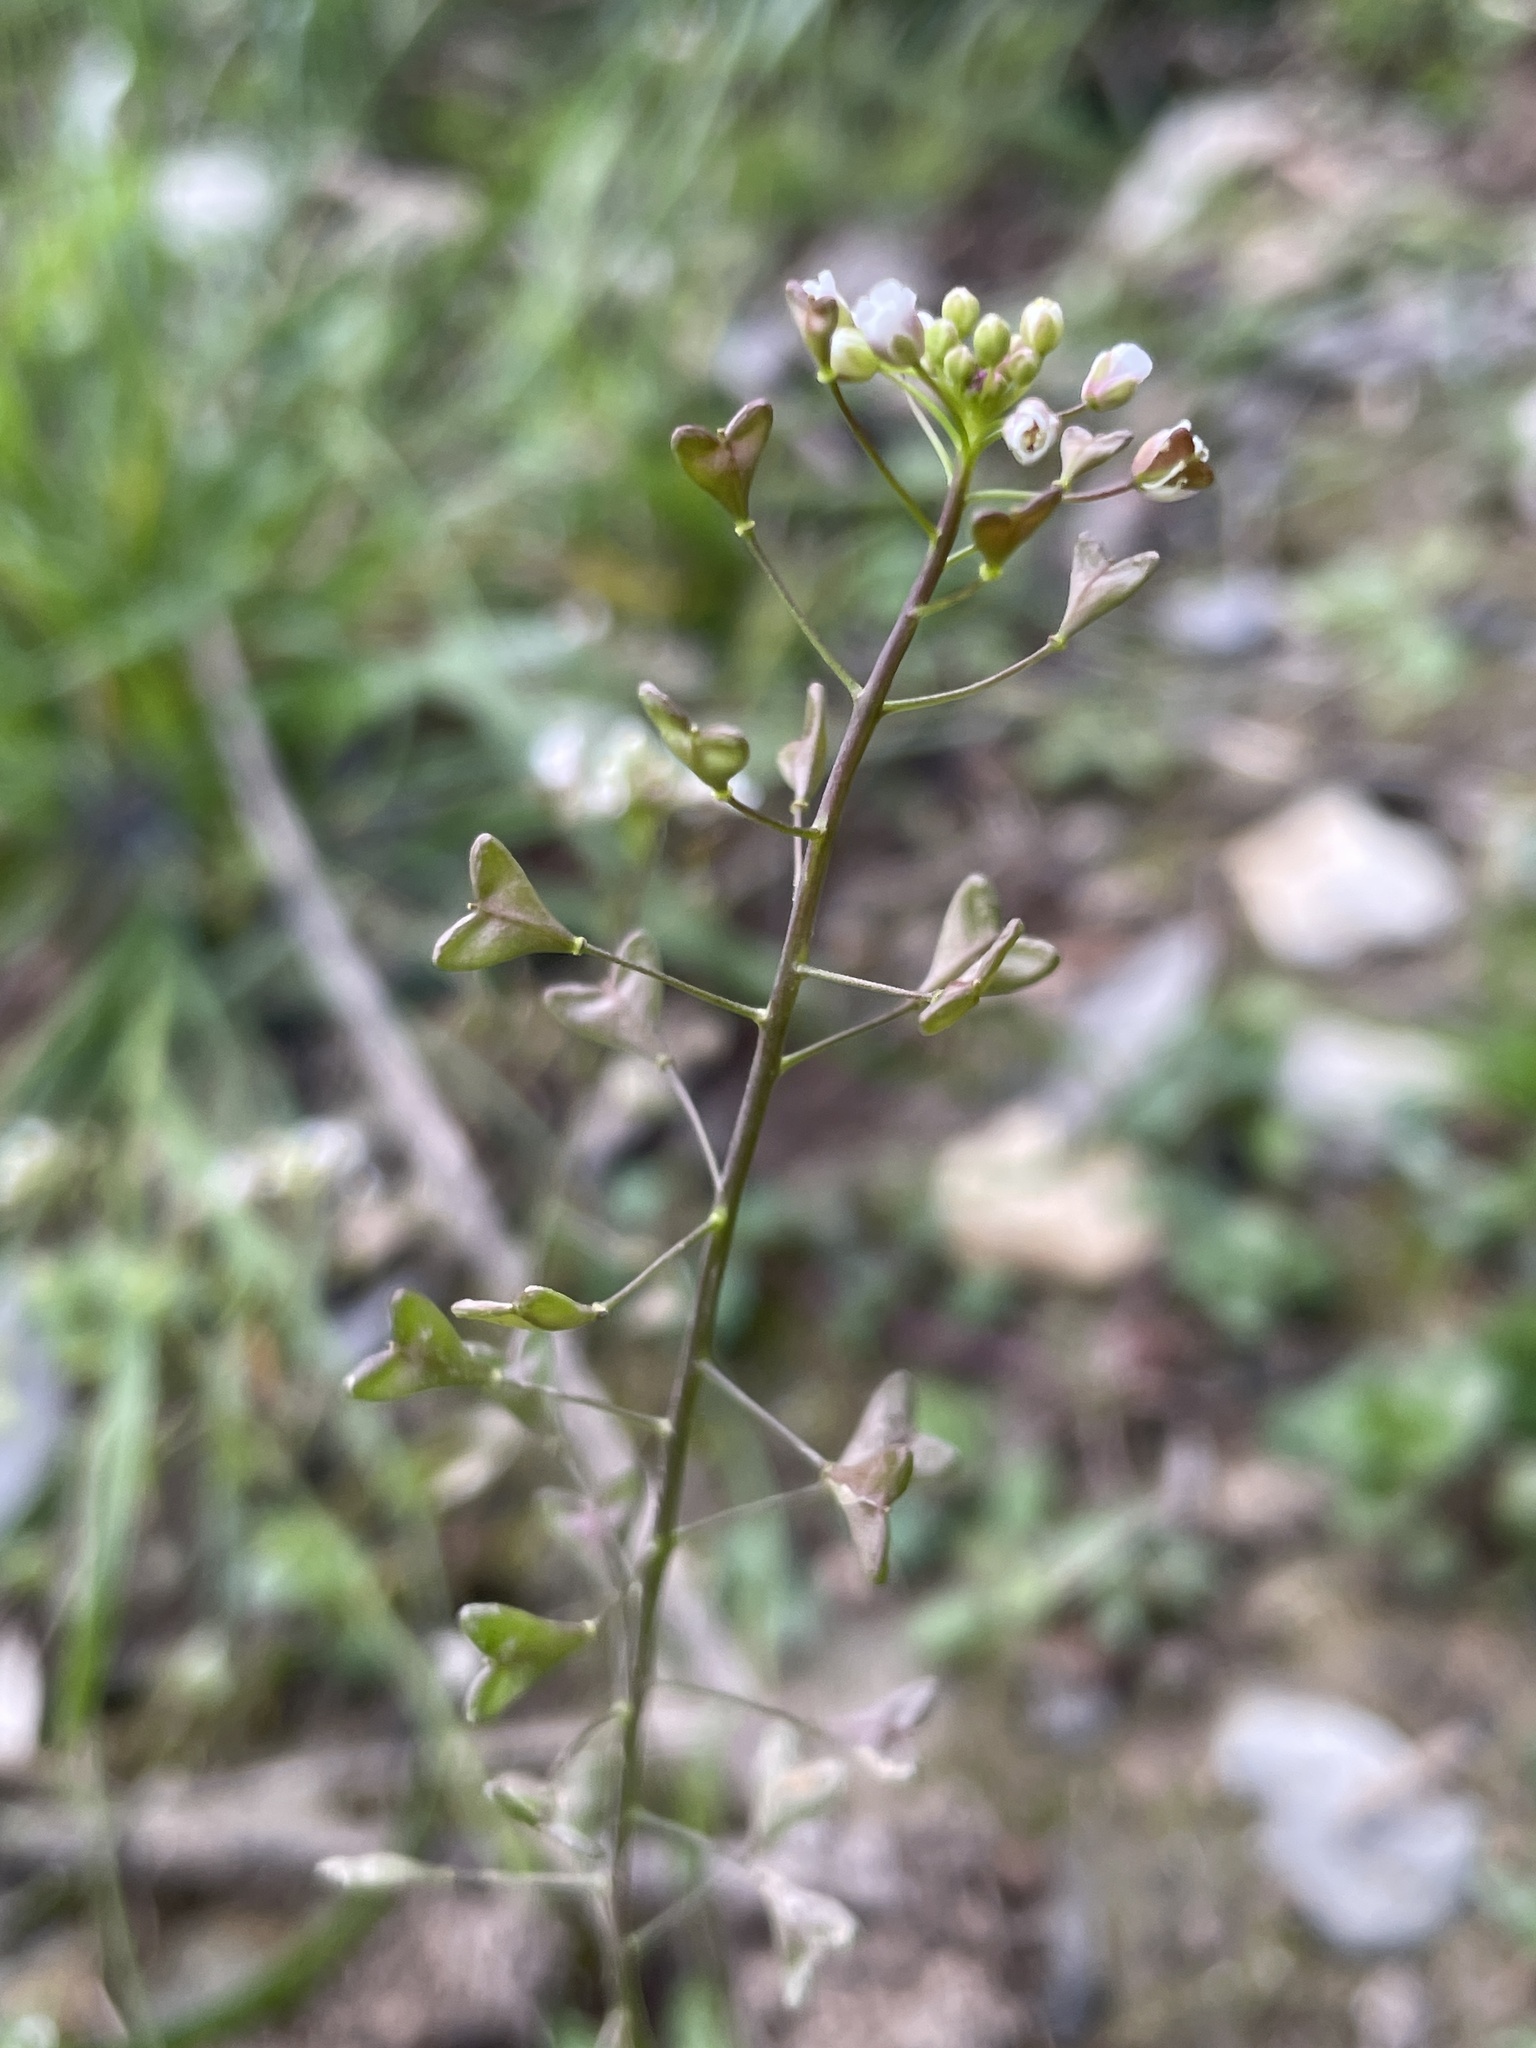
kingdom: Plantae
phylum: Tracheophyta
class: Magnoliopsida
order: Brassicales
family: Brassicaceae
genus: Capsella
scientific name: Capsella bursa-pastoris
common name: Shepherd's purse
